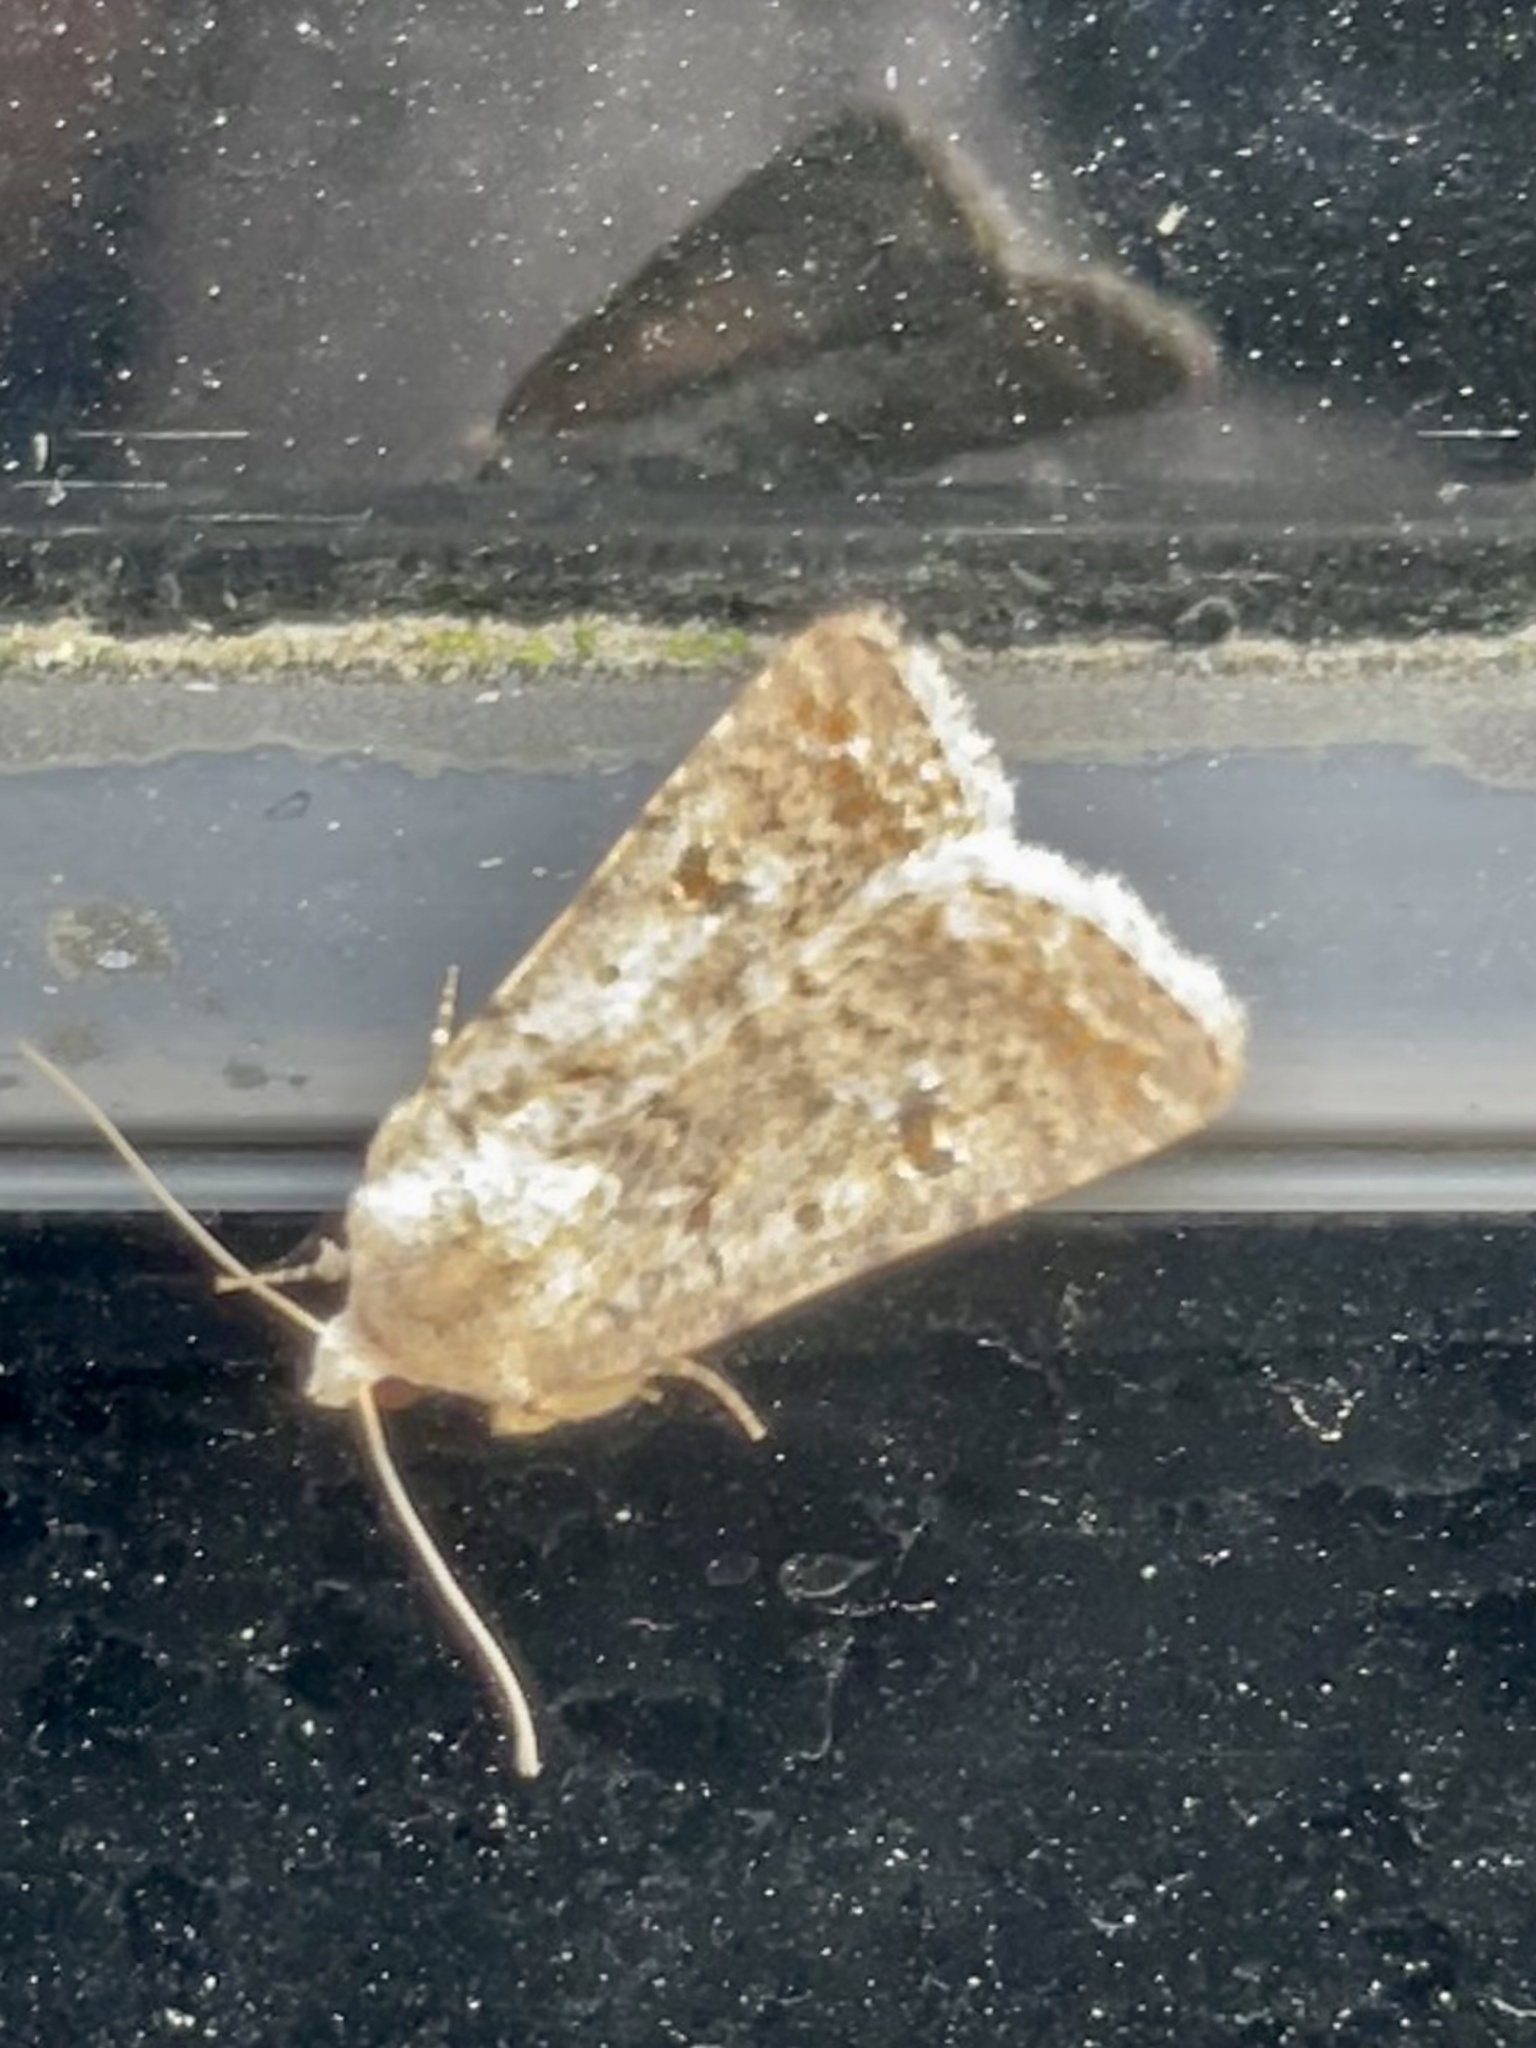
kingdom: Animalia
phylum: Arthropoda
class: Insecta
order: Lepidoptera
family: Noctuidae
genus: Caradrina
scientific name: Caradrina clavipalpis
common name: Pale mottled willow
